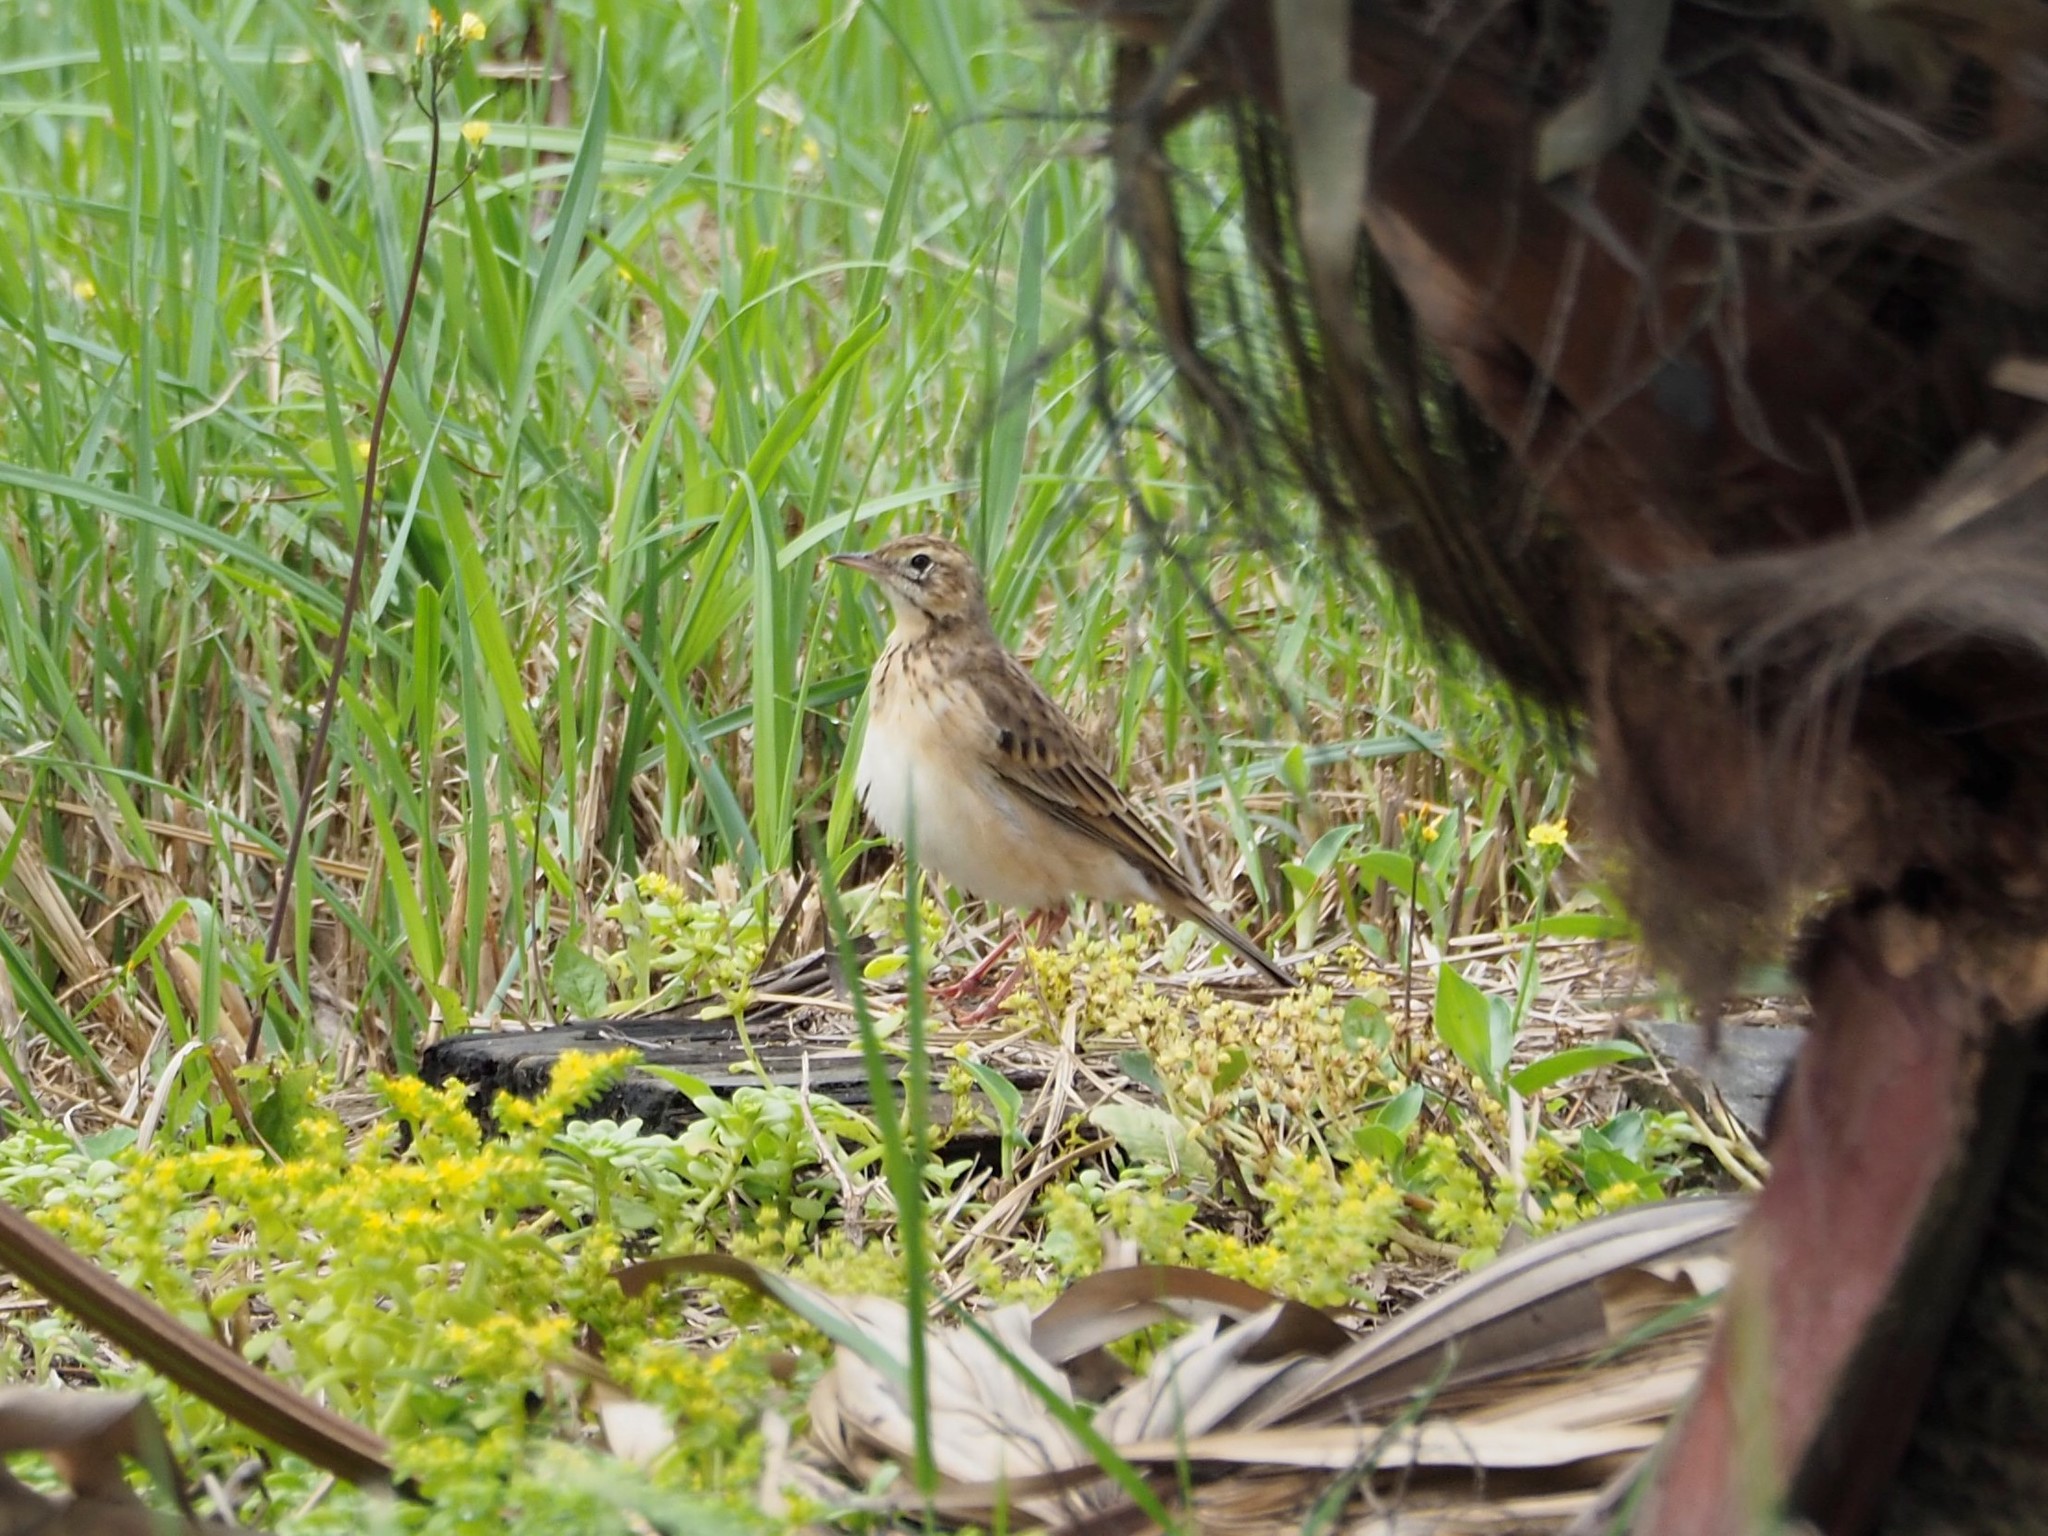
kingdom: Animalia
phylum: Chordata
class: Aves
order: Passeriformes
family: Motacillidae
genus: Anthus
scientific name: Anthus richardi
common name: Richard's pipit
